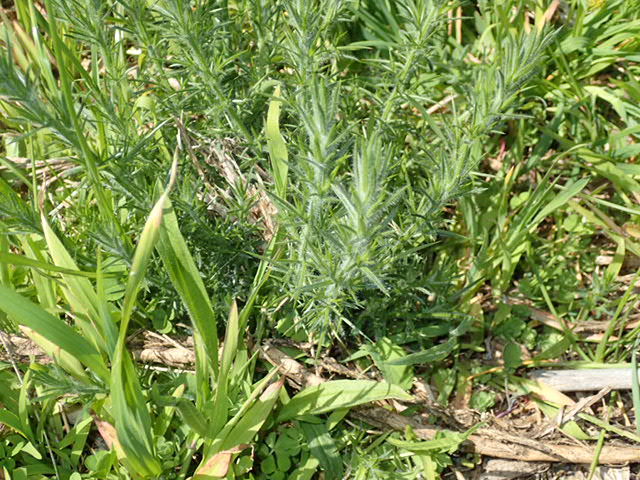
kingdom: Plantae
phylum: Tracheophyta
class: Magnoliopsida
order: Fabales
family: Fabaceae
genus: Ulex
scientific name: Ulex europaeus
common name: Common gorse
